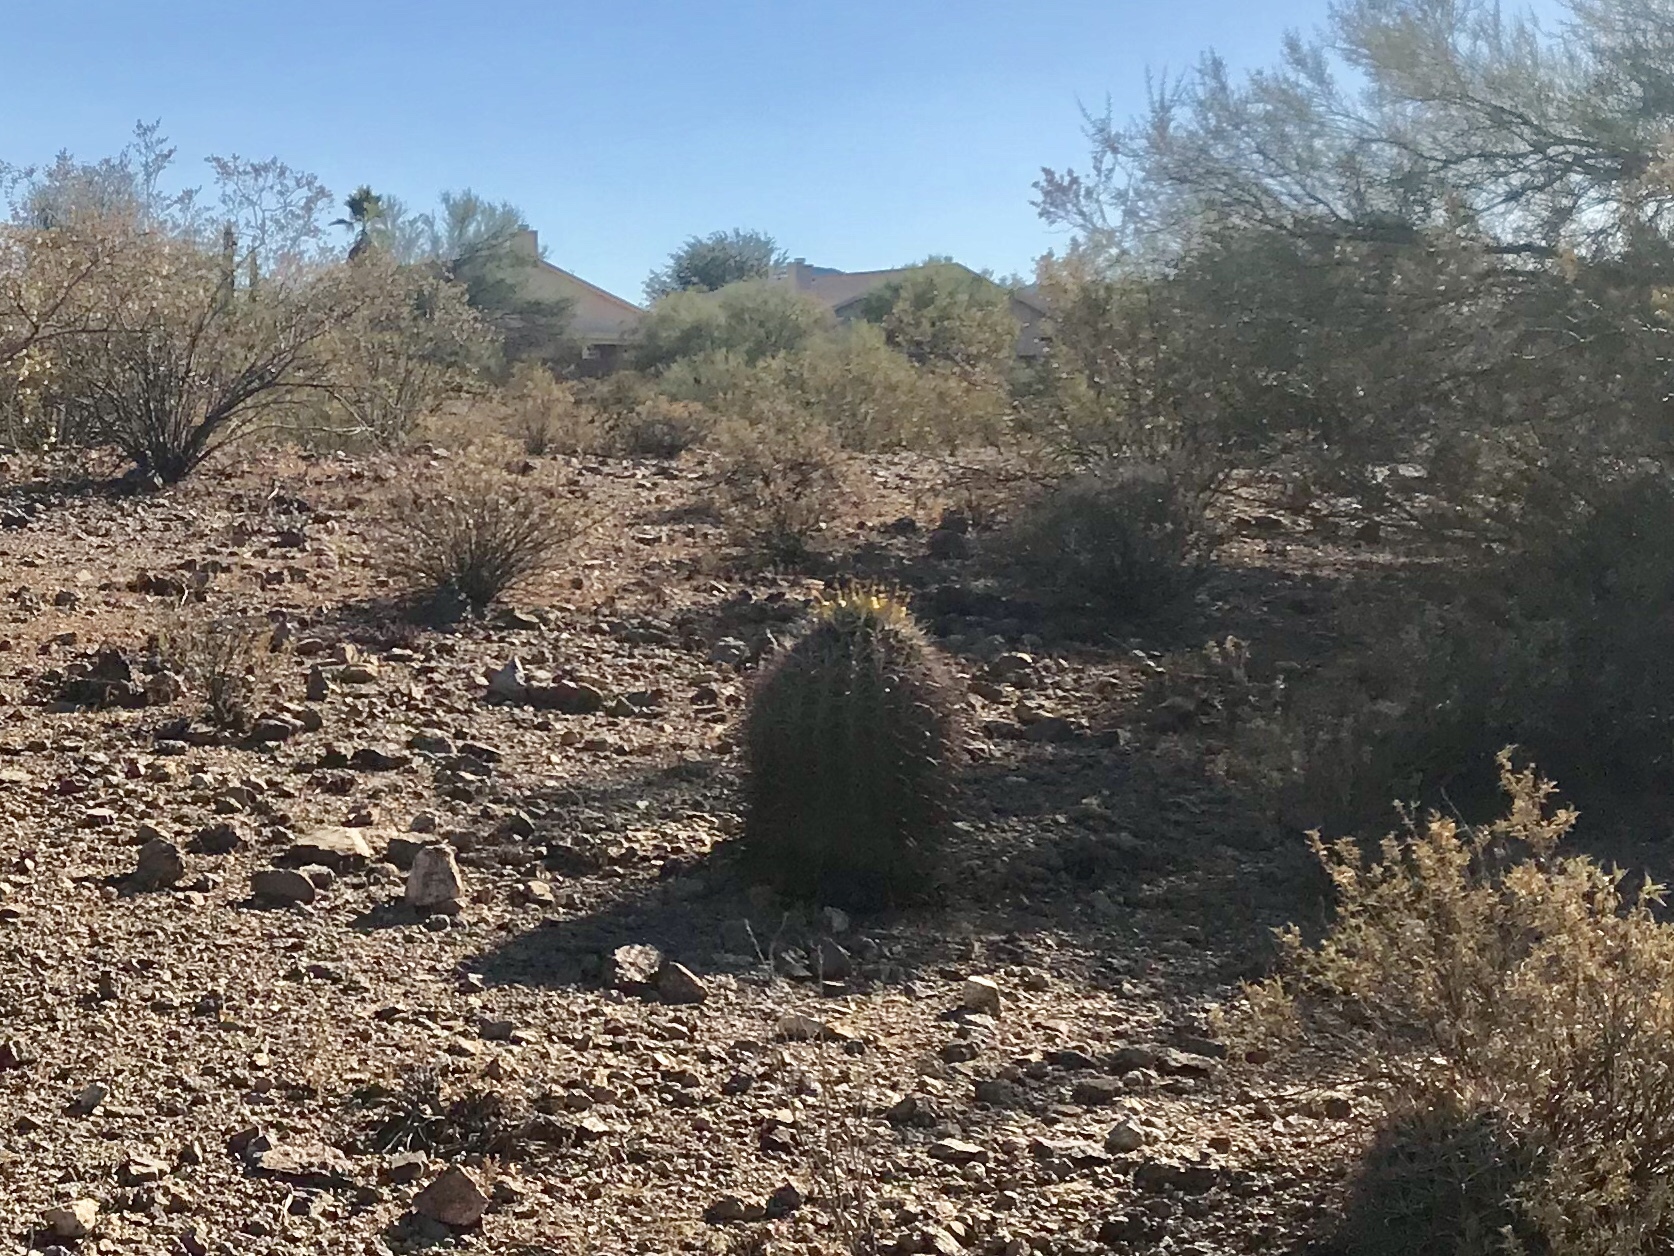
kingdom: Plantae
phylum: Tracheophyta
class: Magnoliopsida
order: Caryophyllales
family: Cactaceae
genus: Ferocactus
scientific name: Ferocactus wislizeni
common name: Candy barrel cactus
